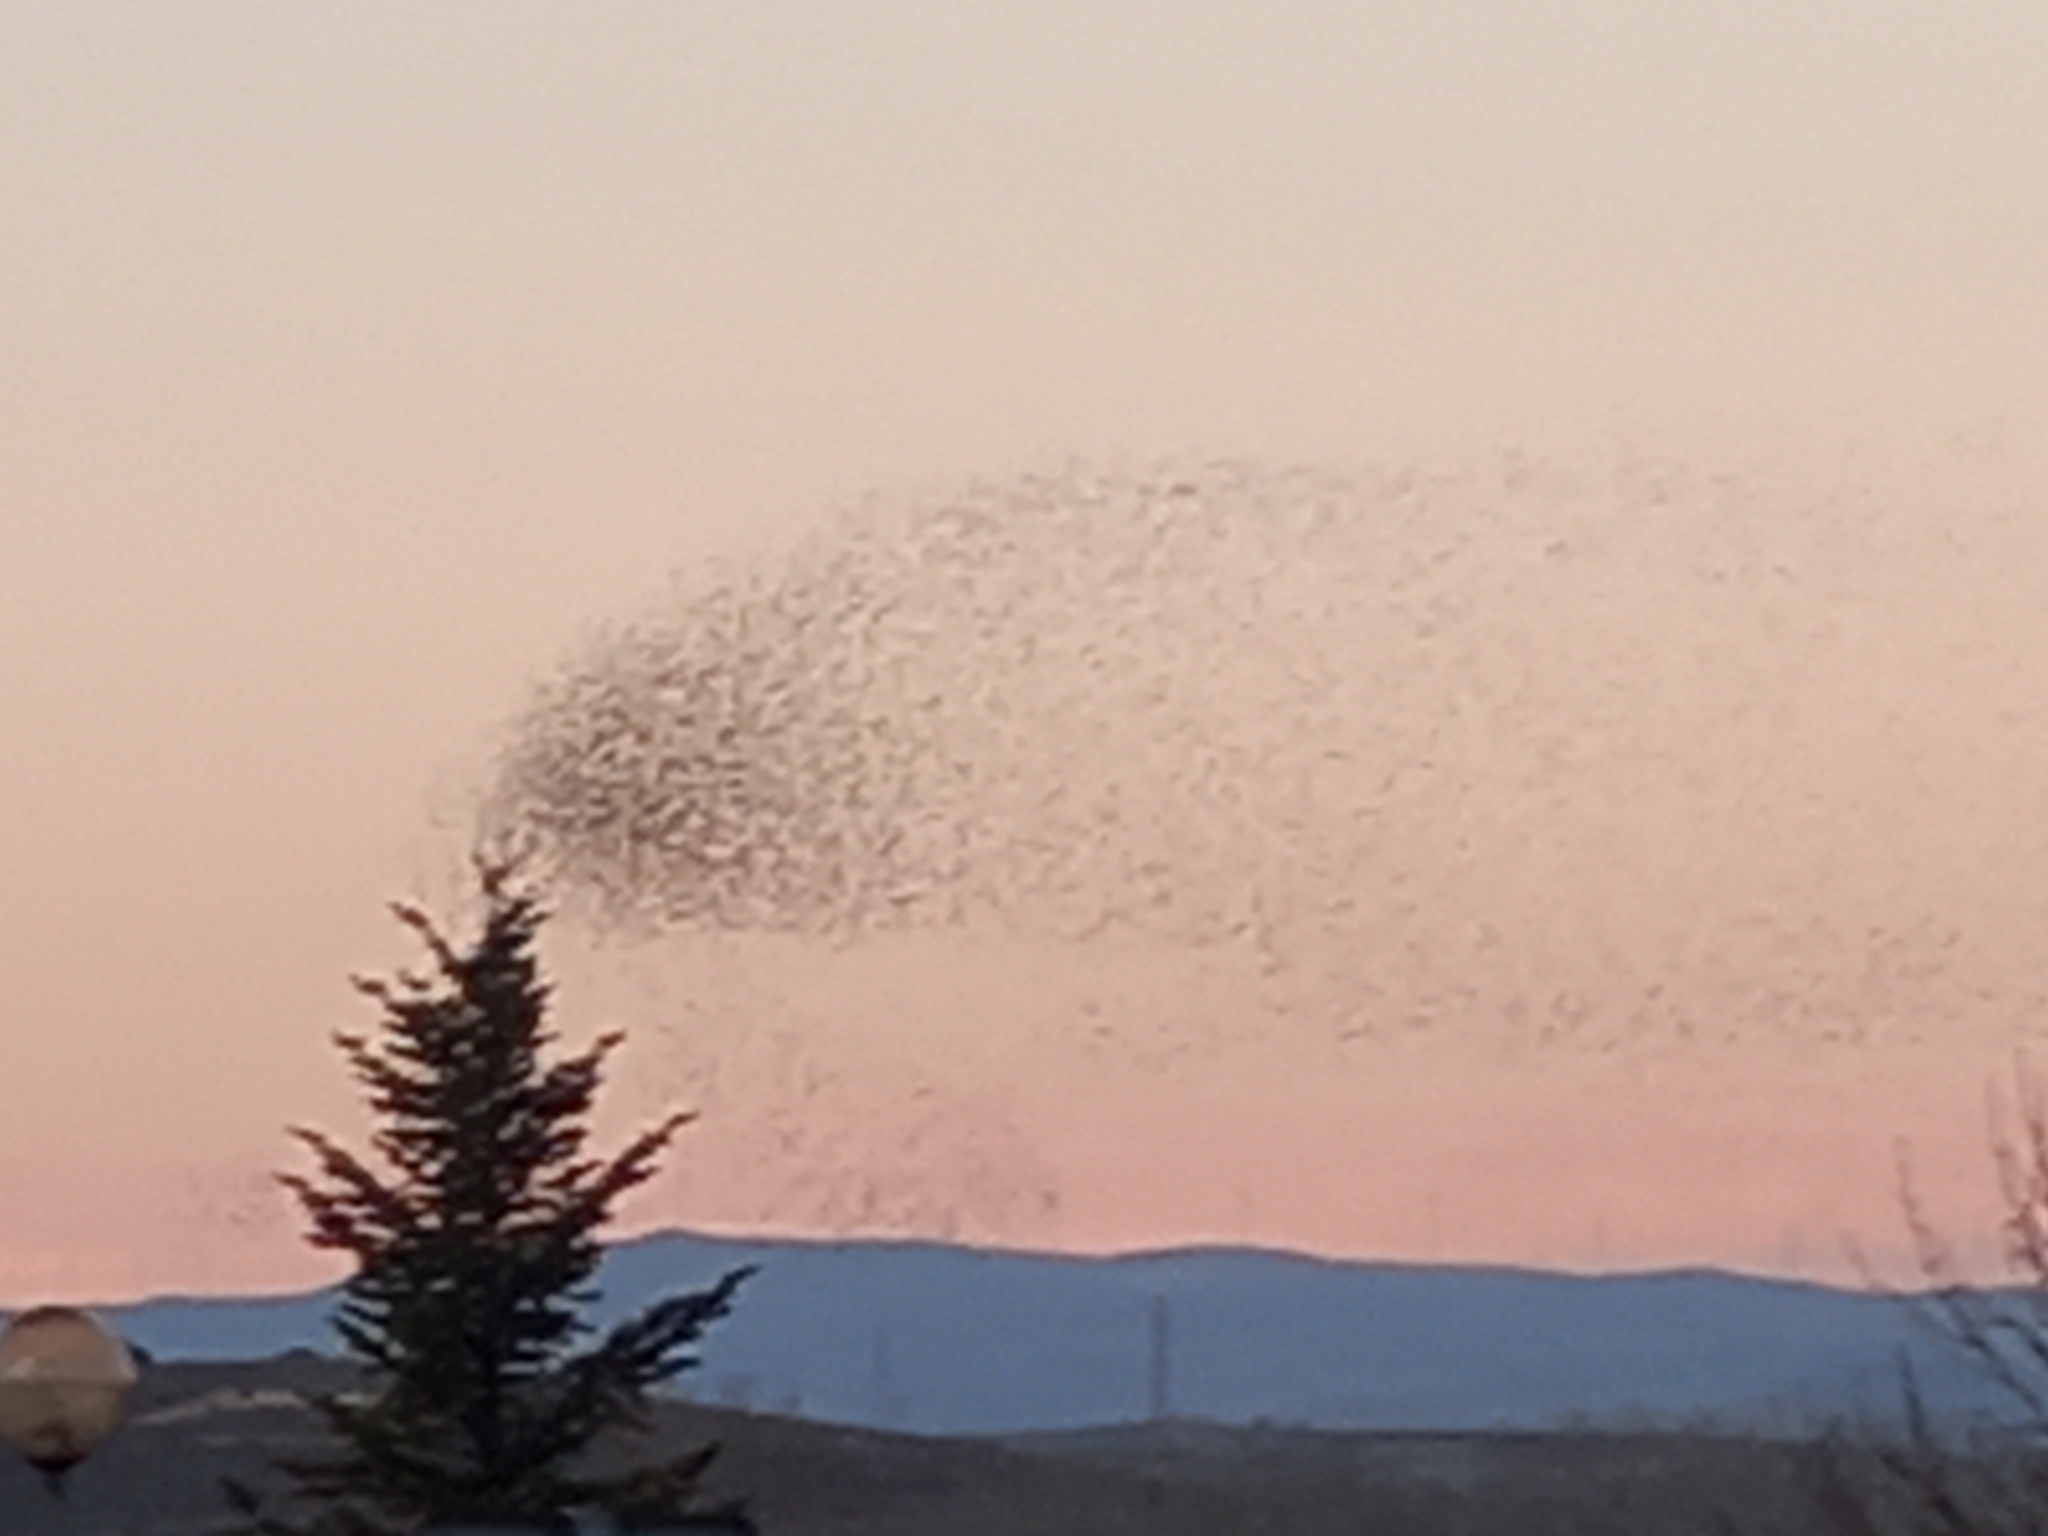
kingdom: Animalia
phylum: Chordata
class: Aves
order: Passeriformes
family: Sturnidae
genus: Sturnus
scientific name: Sturnus unicolor
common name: Spotless starling
